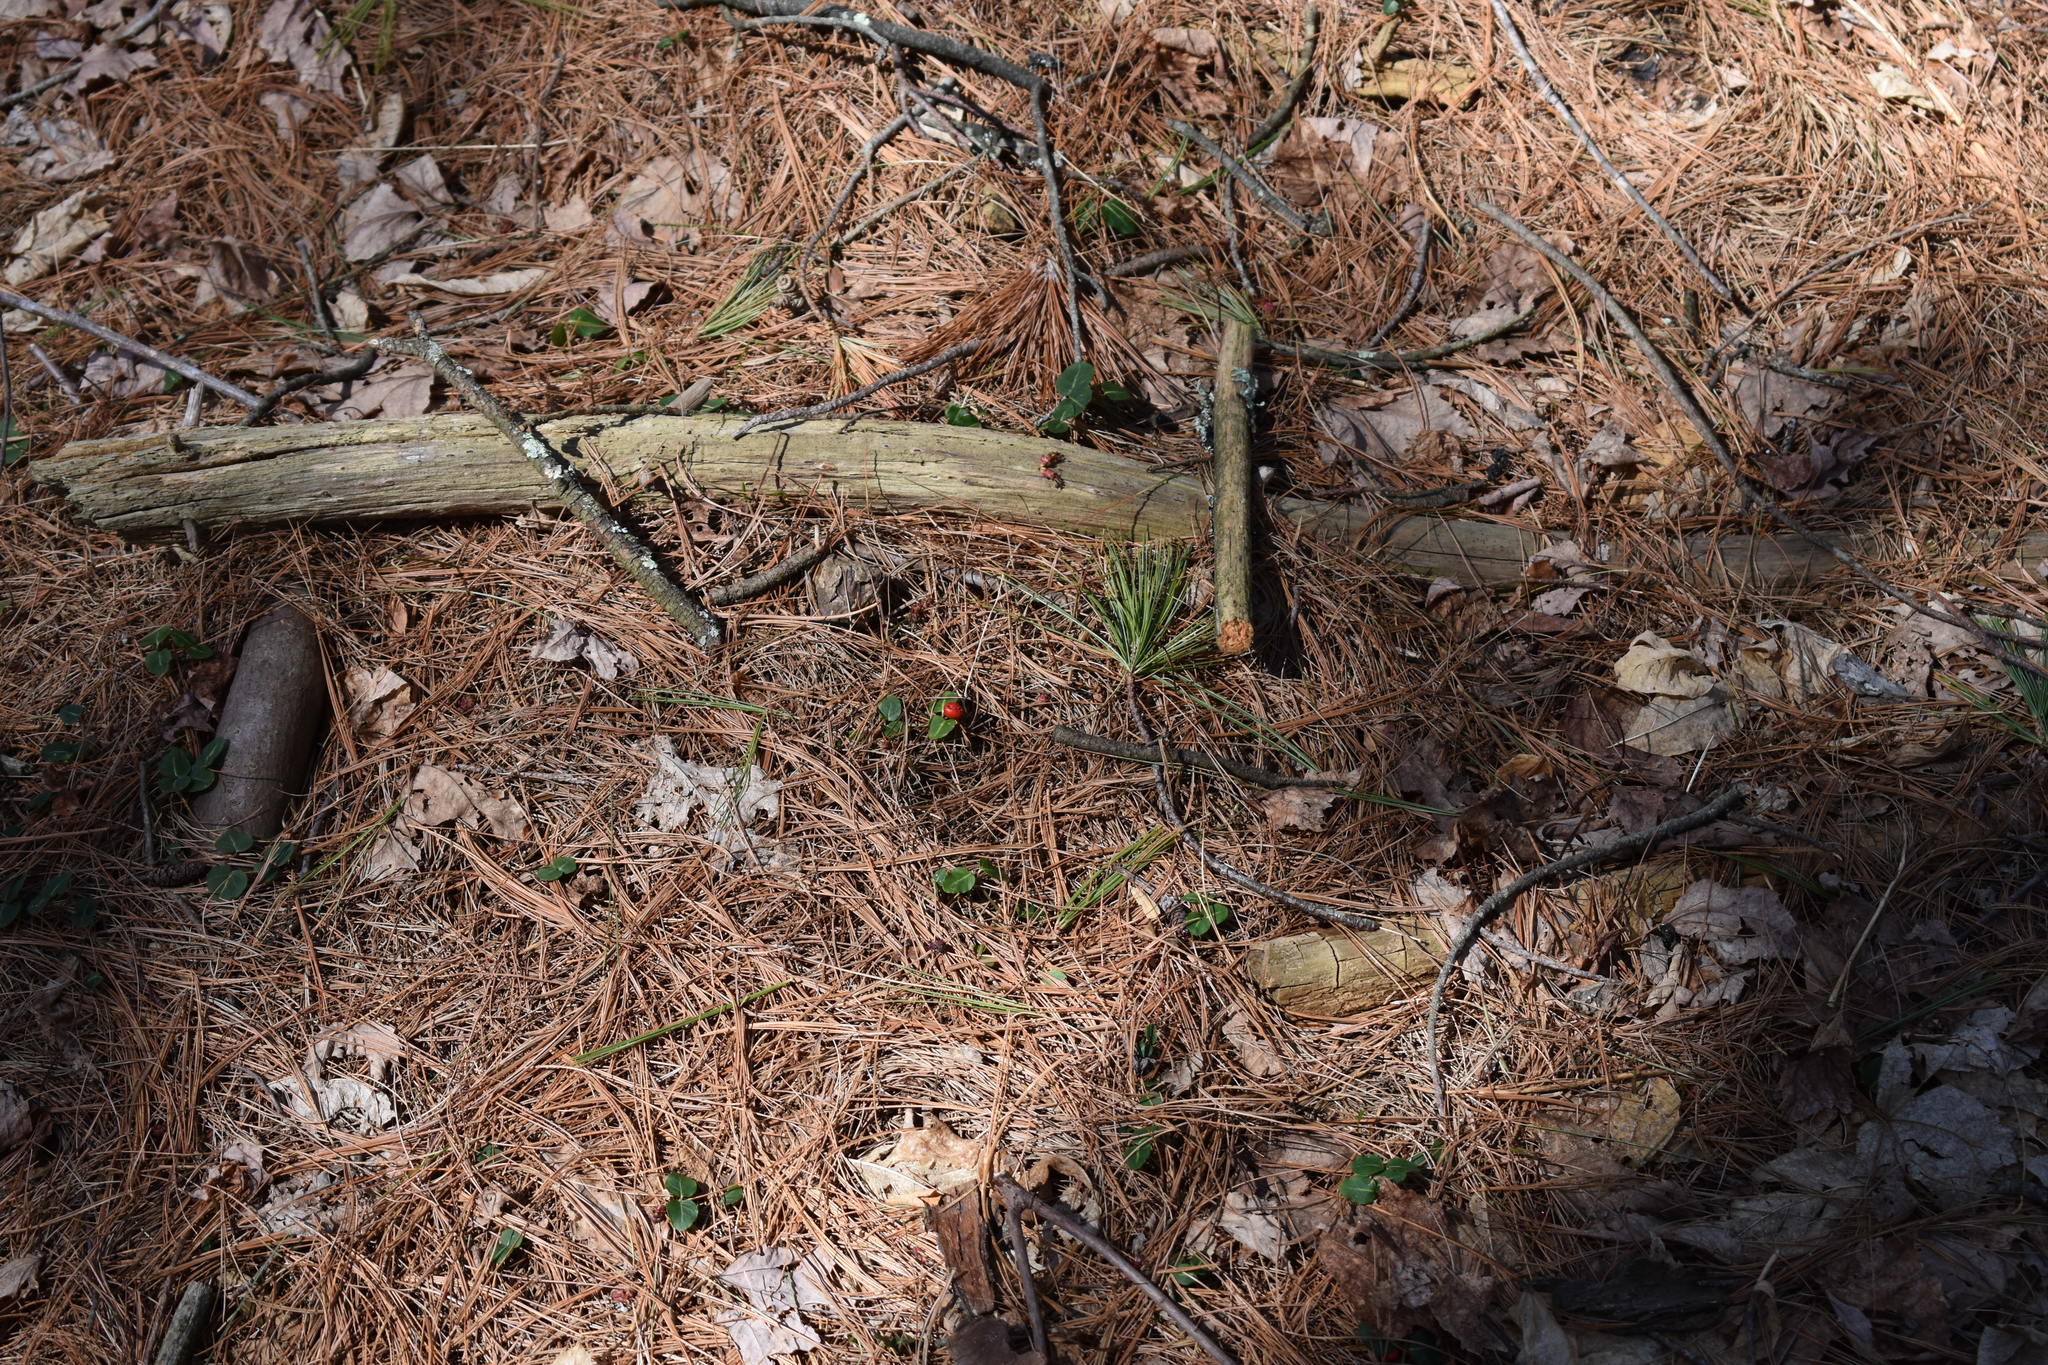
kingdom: Plantae
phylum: Tracheophyta
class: Magnoliopsida
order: Gentianales
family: Rubiaceae
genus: Mitchella
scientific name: Mitchella repens
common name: Partridge-berry
